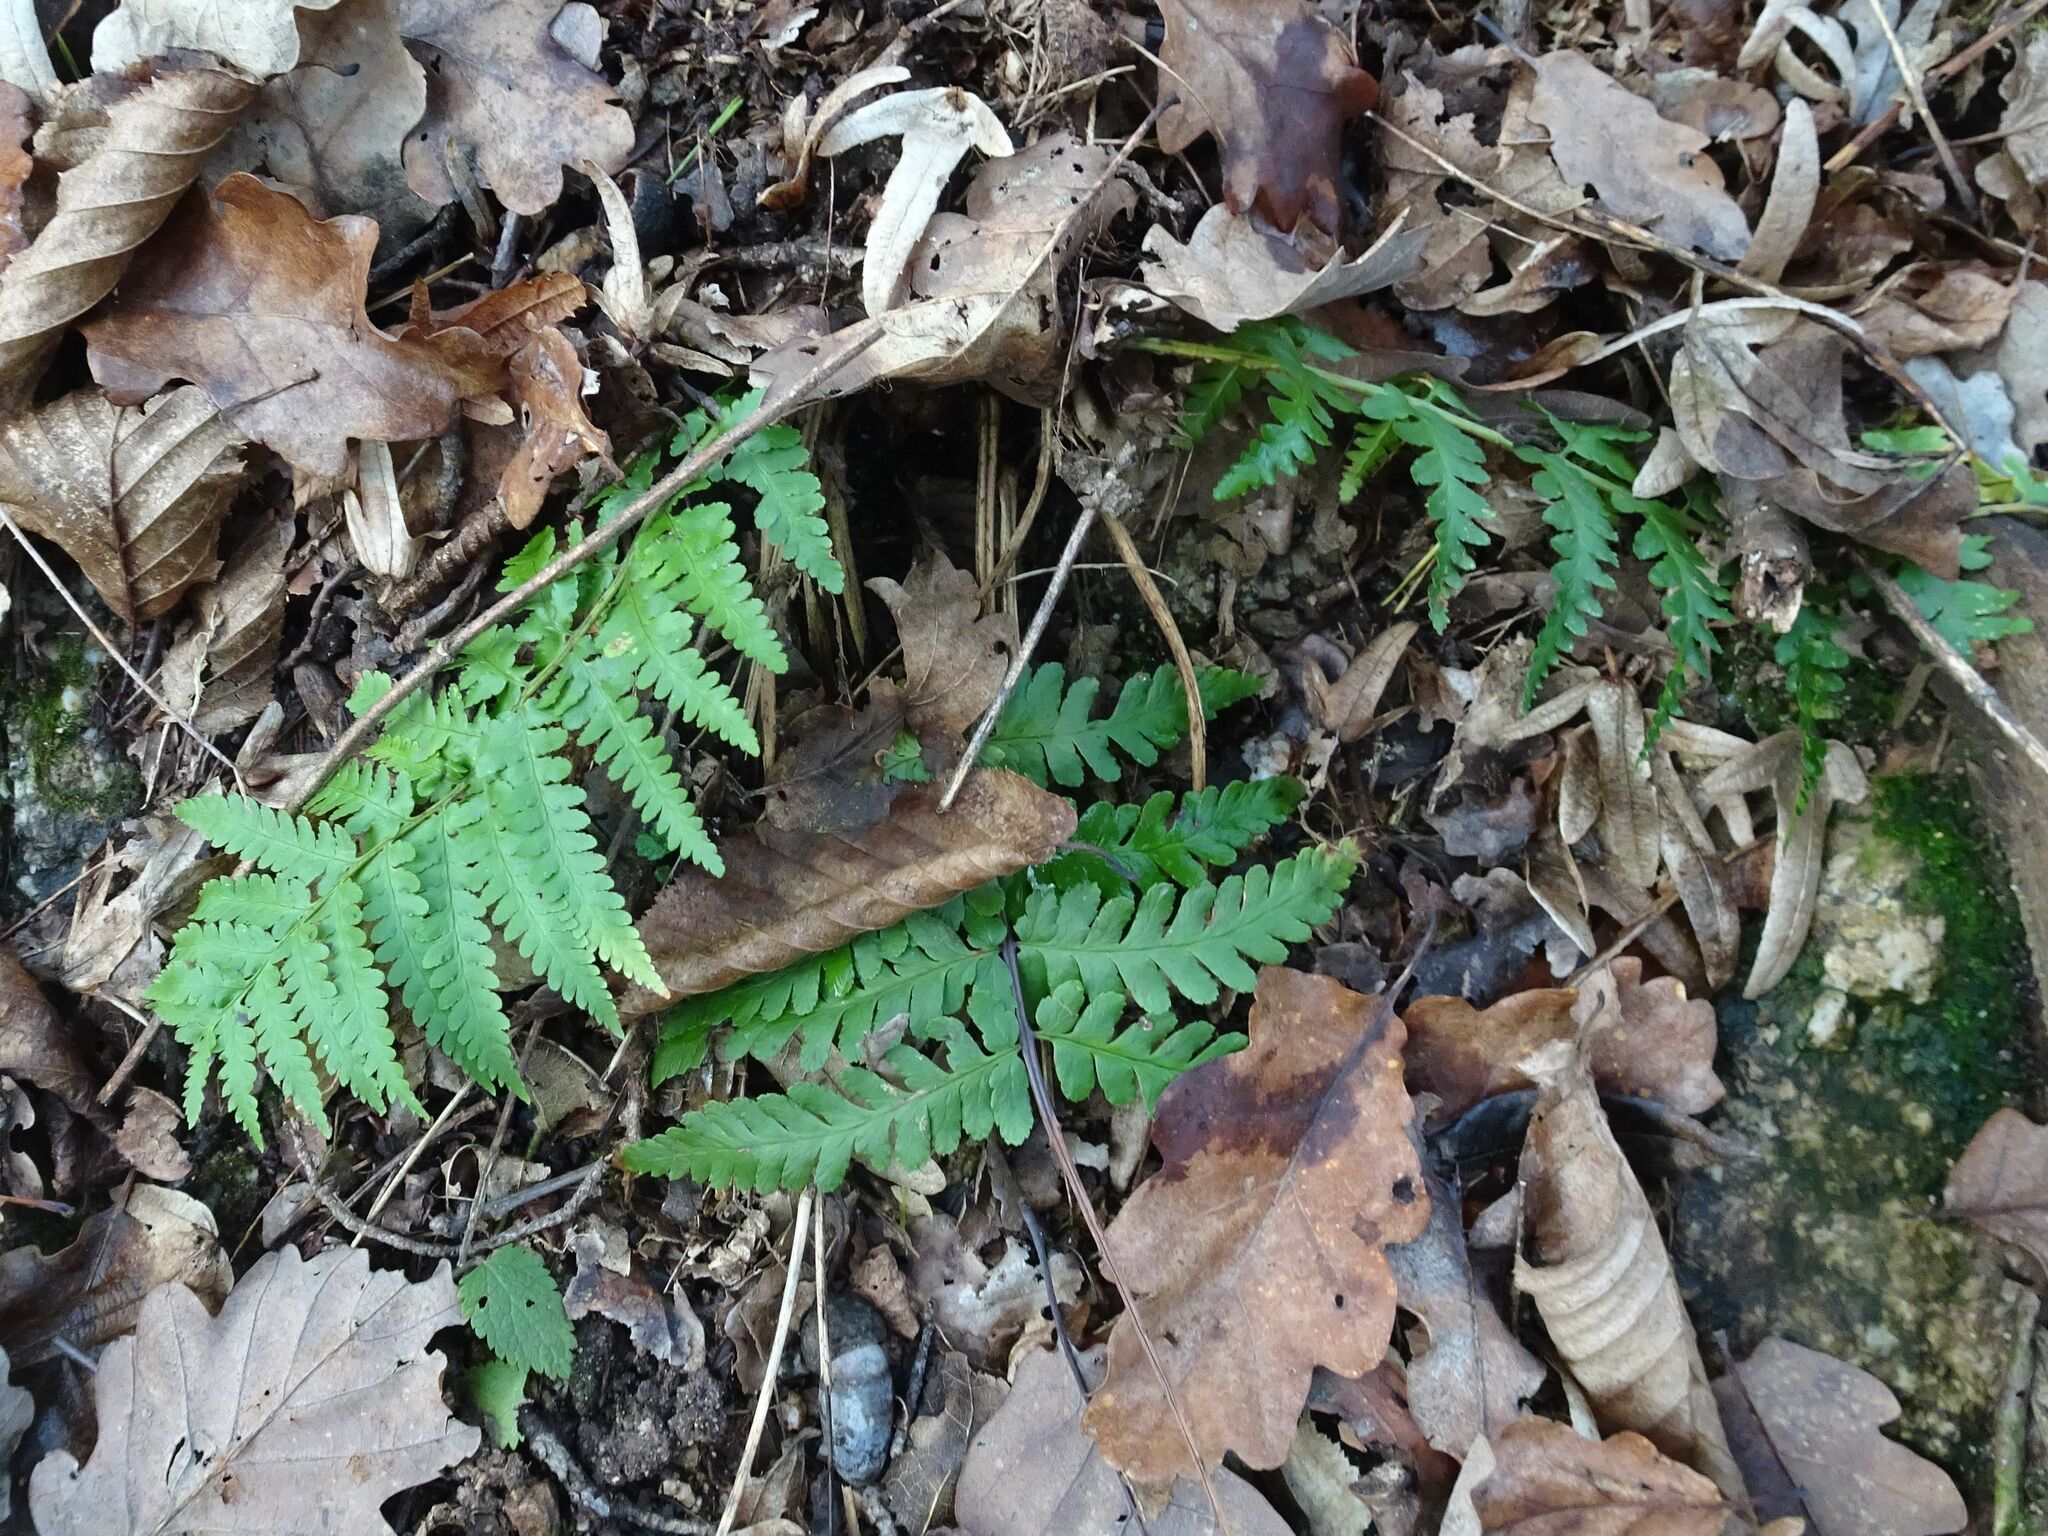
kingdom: Plantae
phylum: Tracheophyta
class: Polypodiopsida
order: Polypodiales
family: Dryopteridaceae
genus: Dryopteris
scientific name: Dryopteris filix-mas
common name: Male fern
